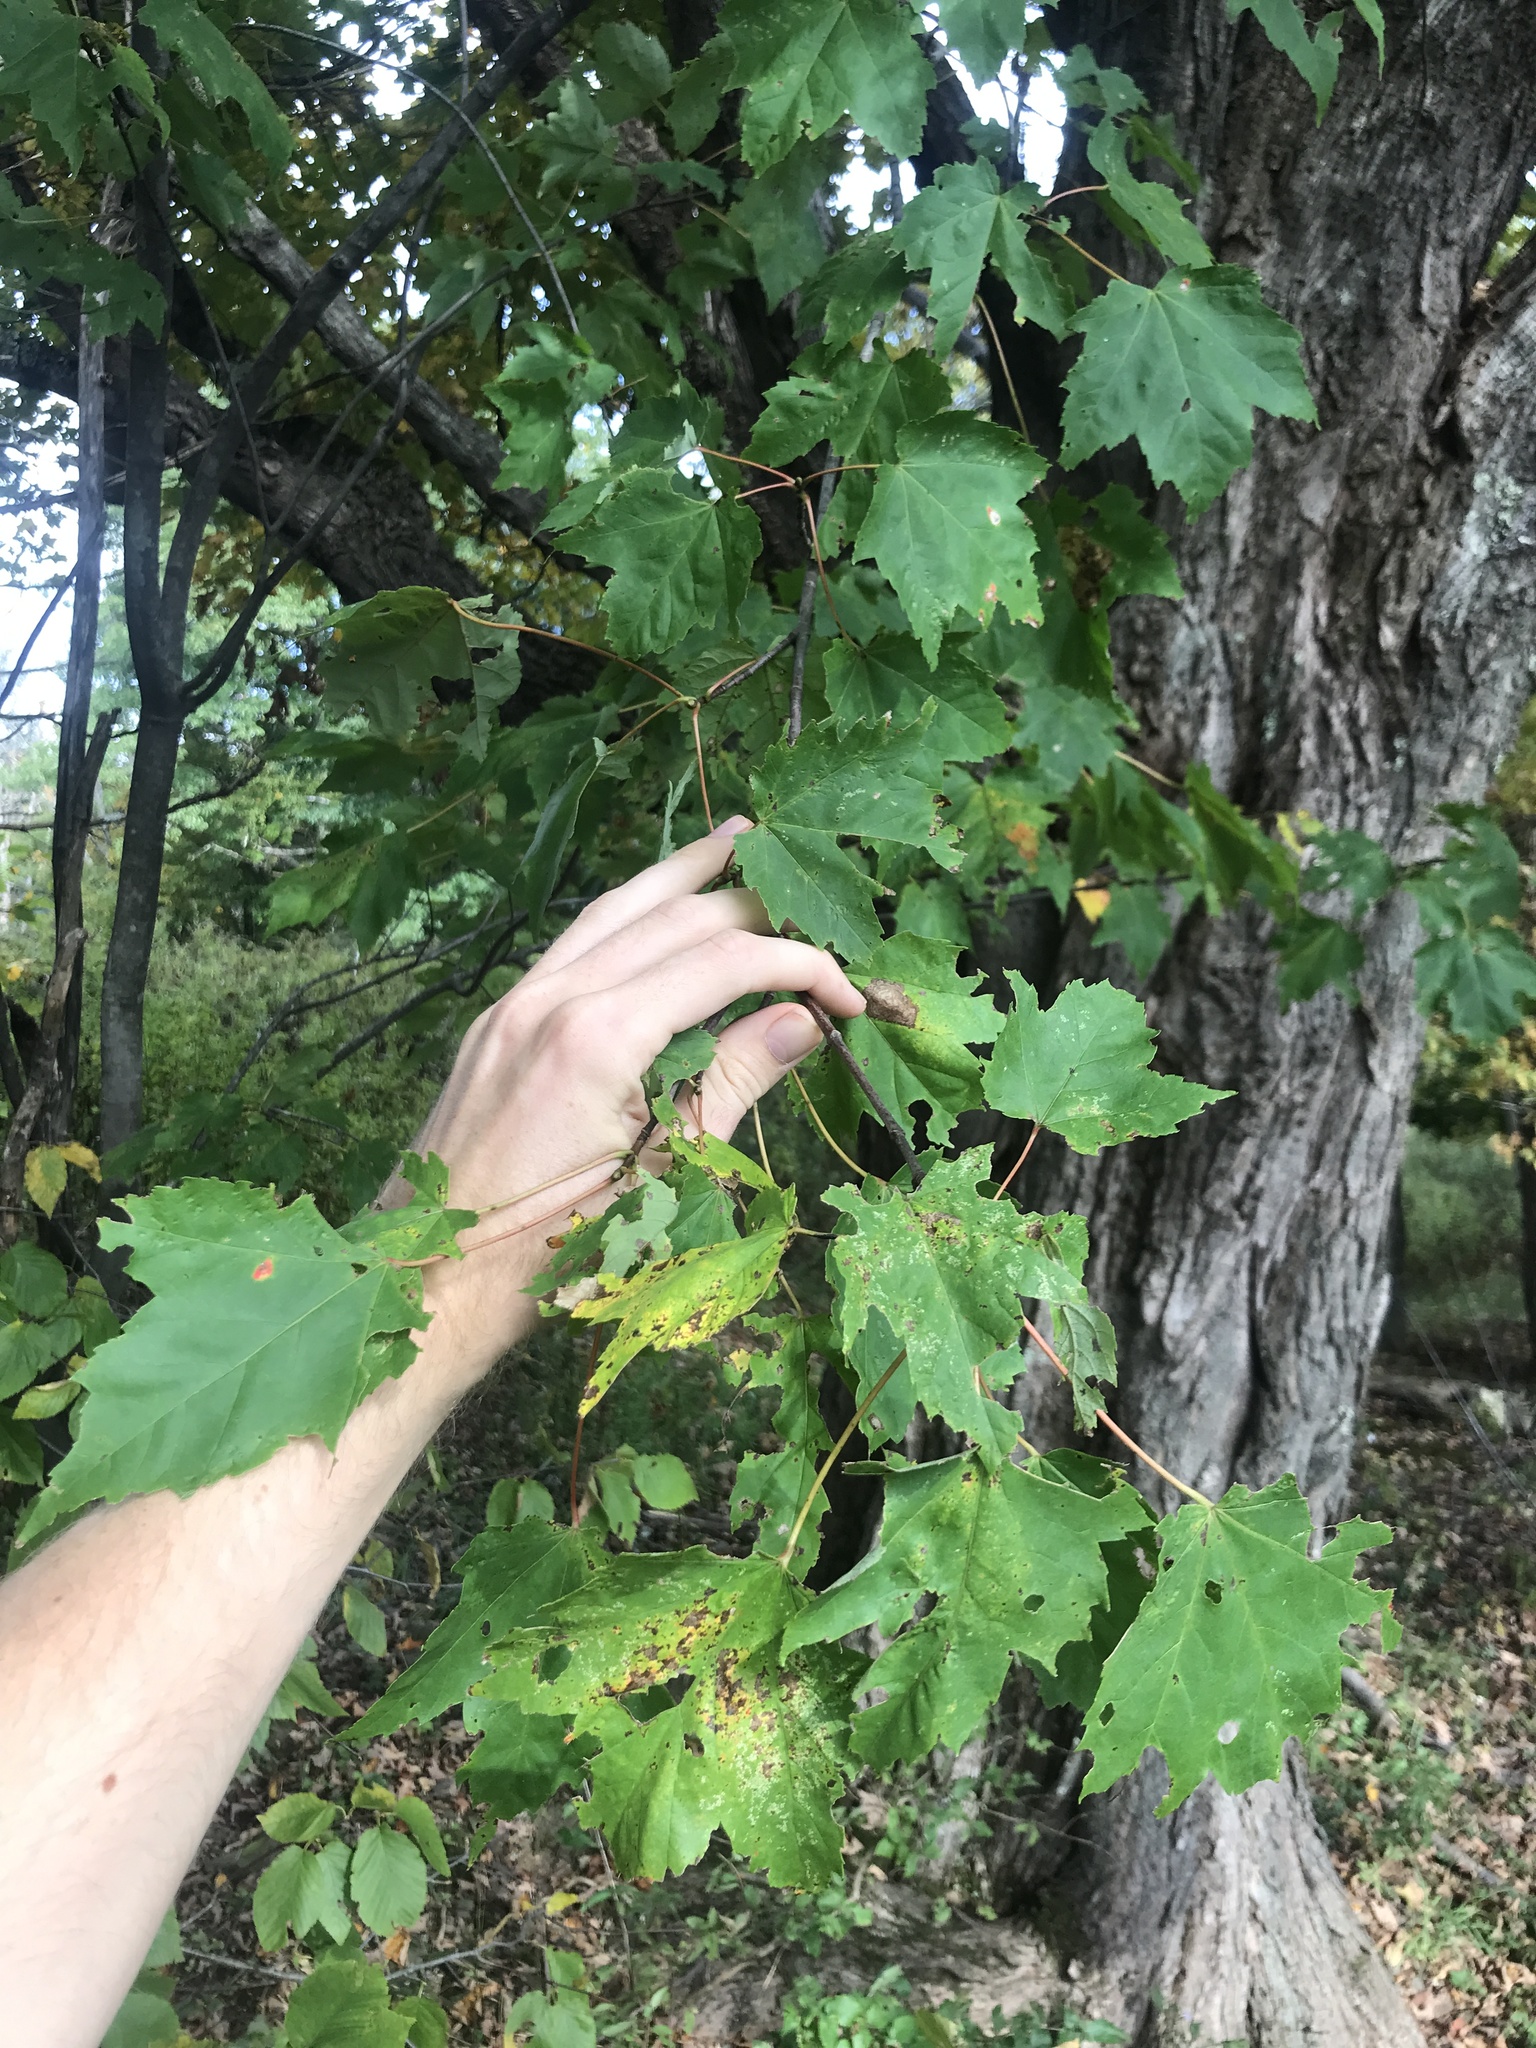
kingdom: Plantae
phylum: Tracheophyta
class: Magnoliopsida
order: Sapindales
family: Sapindaceae
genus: Acer
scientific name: Acer rubrum
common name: Red maple
